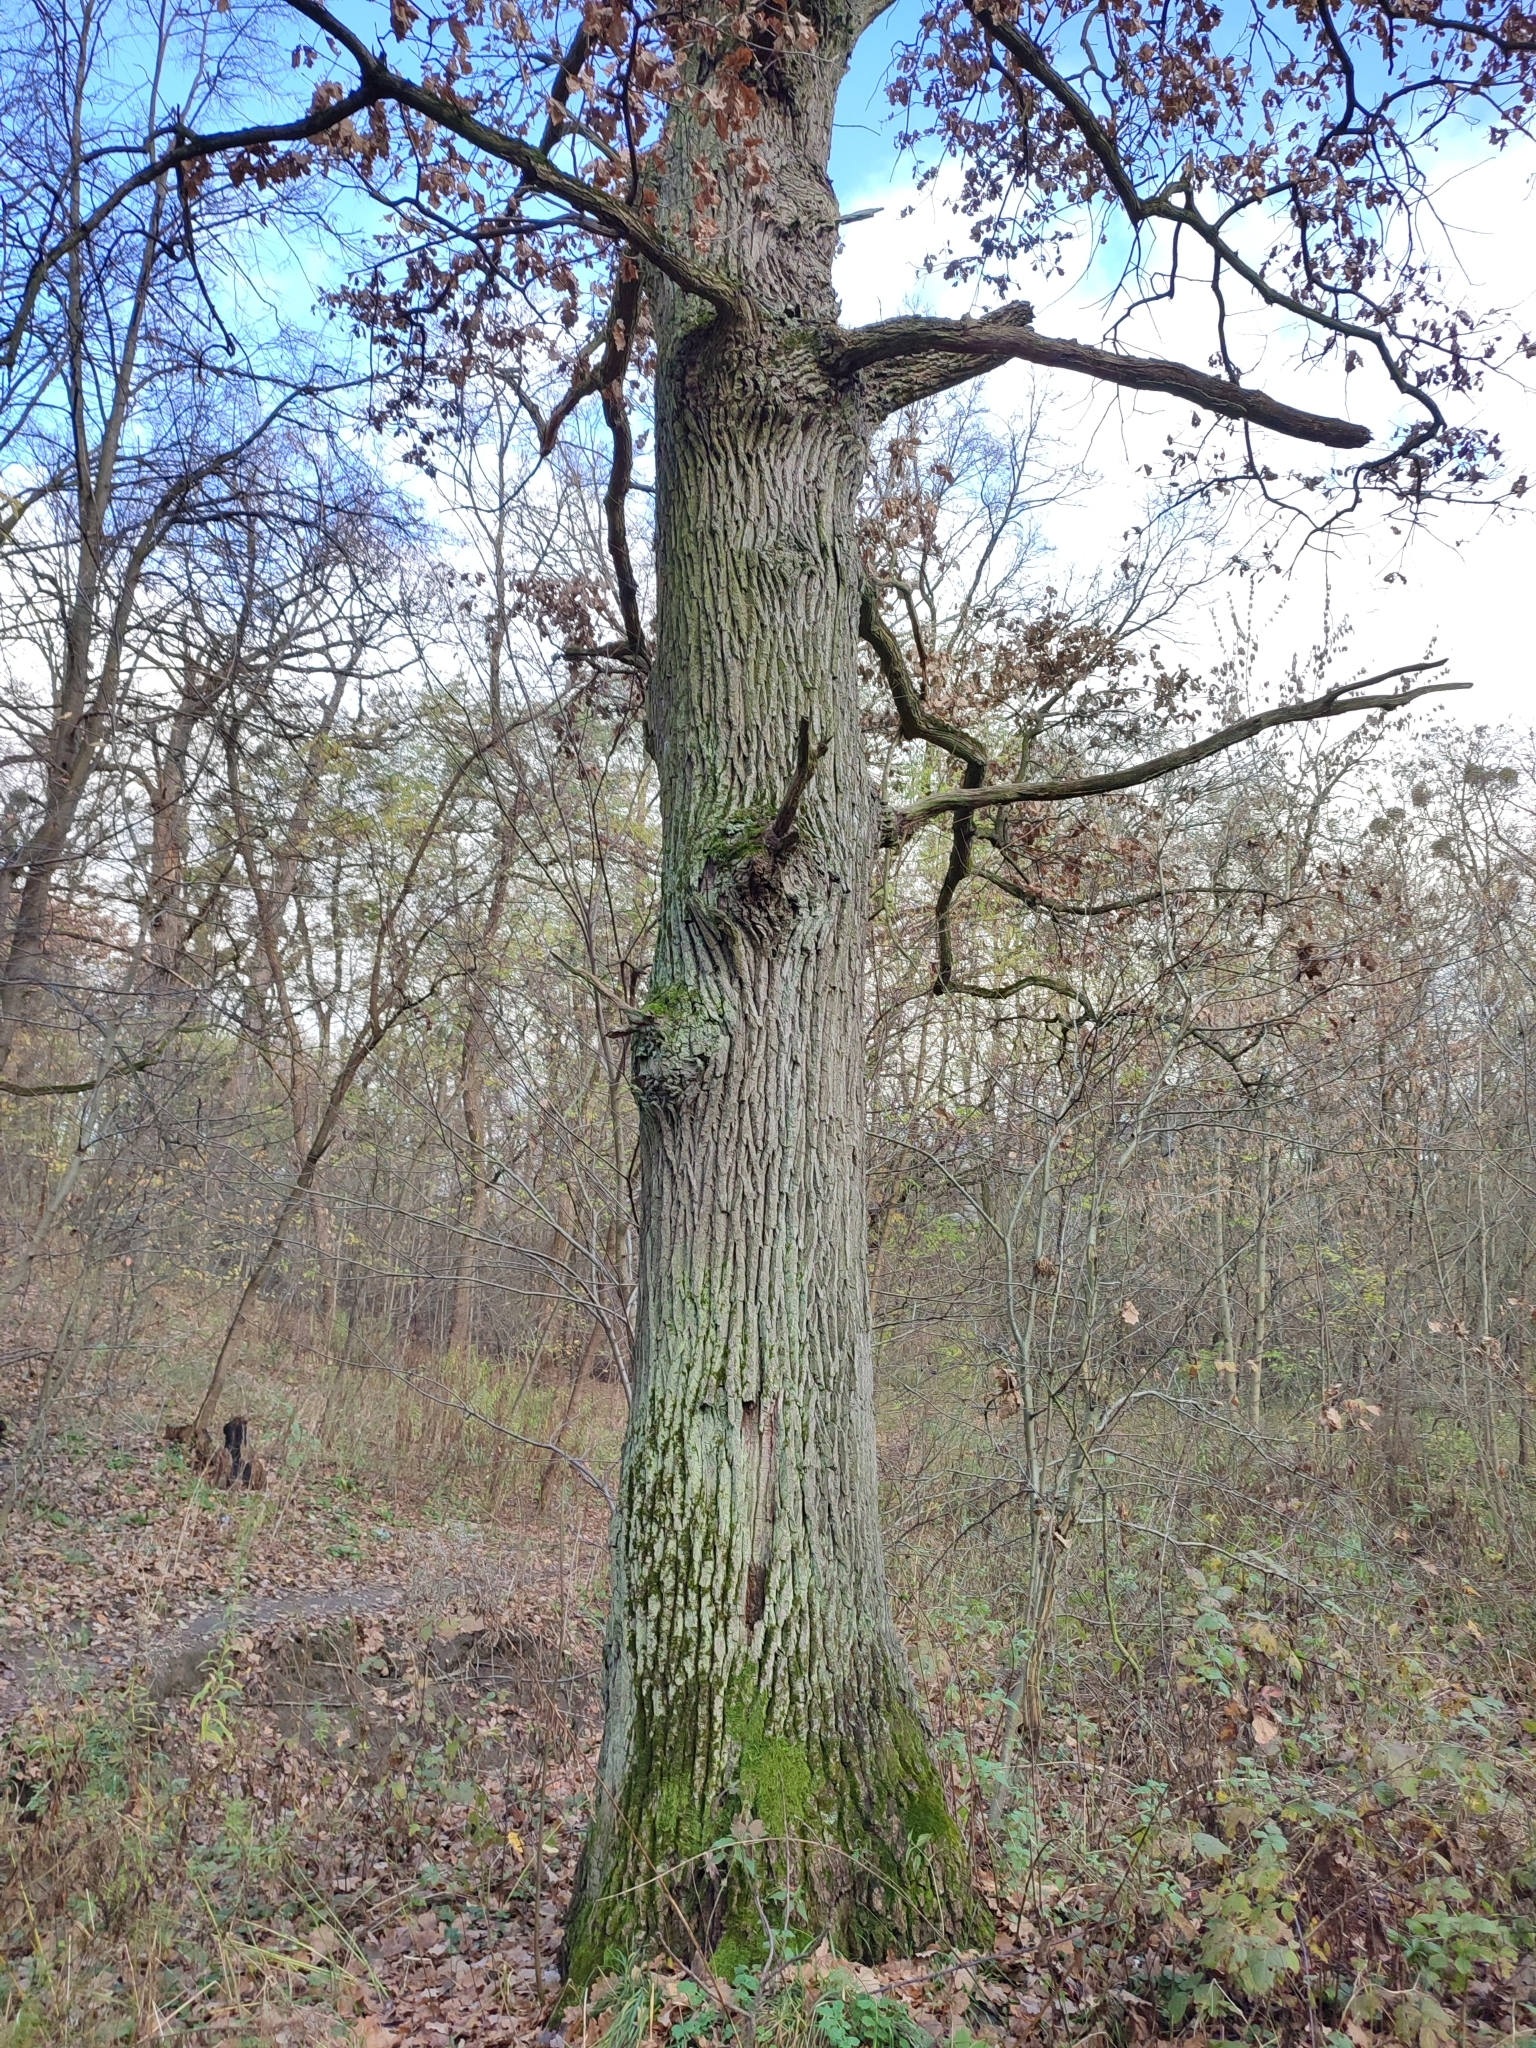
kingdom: Plantae
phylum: Tracheophyta
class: Magnoliopsida
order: Fagales
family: Fagaceae
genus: Quercus
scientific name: Quercus robur
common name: Pedunculate oak
